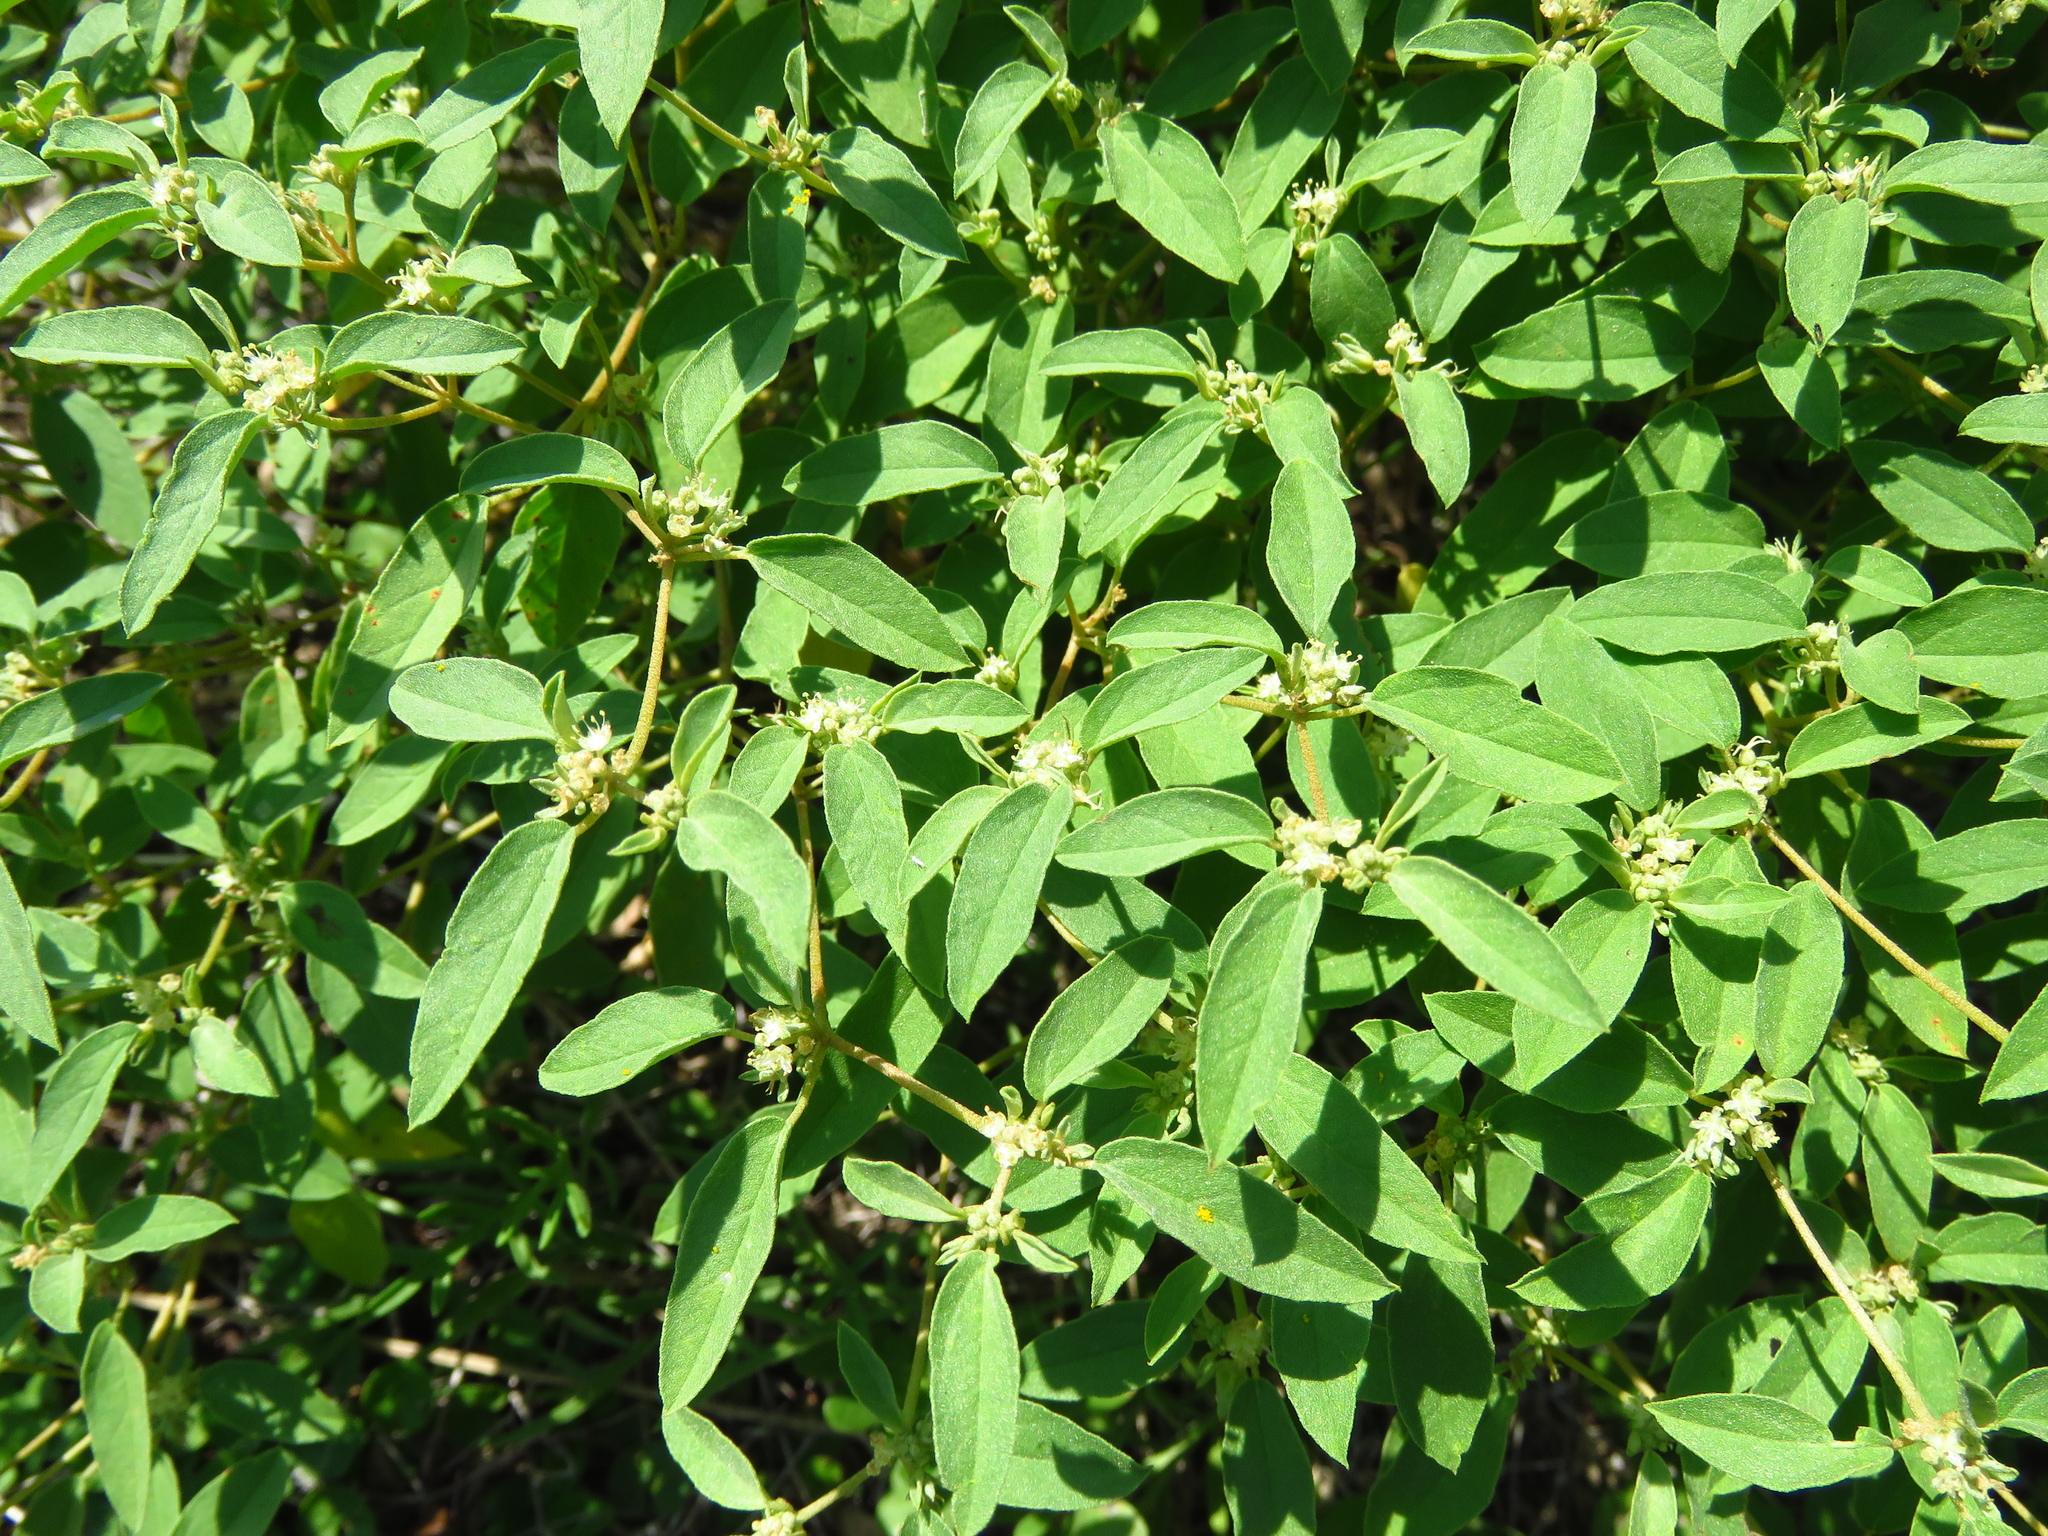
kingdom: Plantae
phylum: Tracheophyta
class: Magnoliopsida
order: Malpighiales
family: Euphorbiaceae
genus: Croton
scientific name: Croton monanthogynus
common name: One-seed croton
